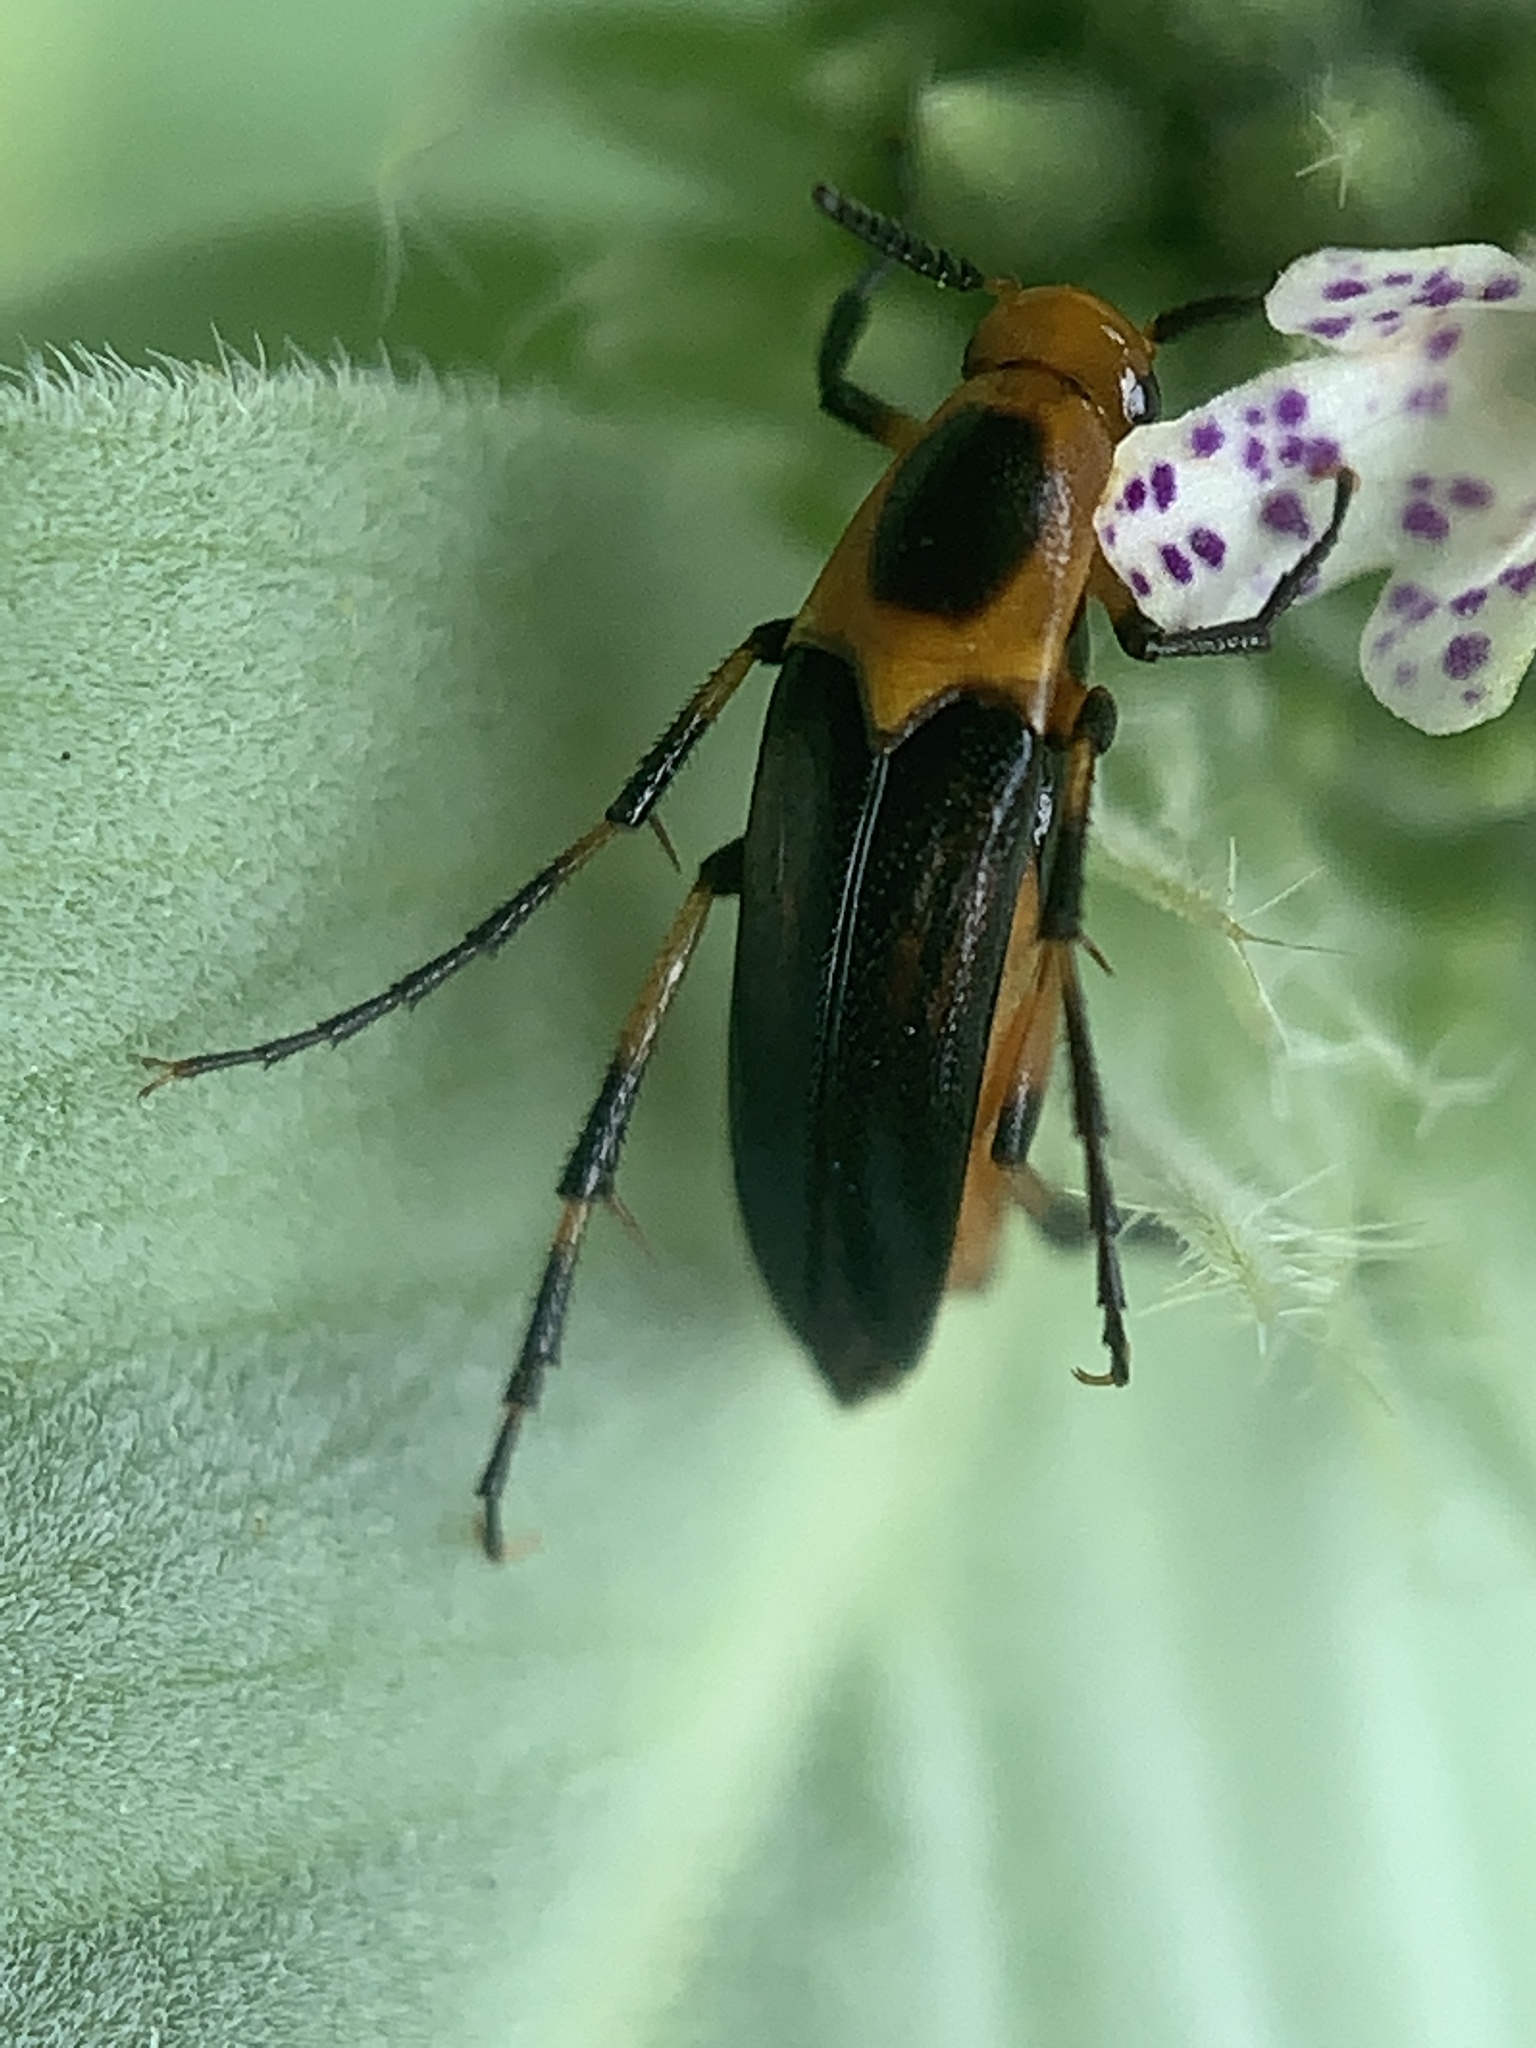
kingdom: Animalia
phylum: Arthropoda
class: Insecta
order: Coleoptera
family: Ripiphoridae
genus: Macrosiagon
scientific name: Macrosiagon limbatum
